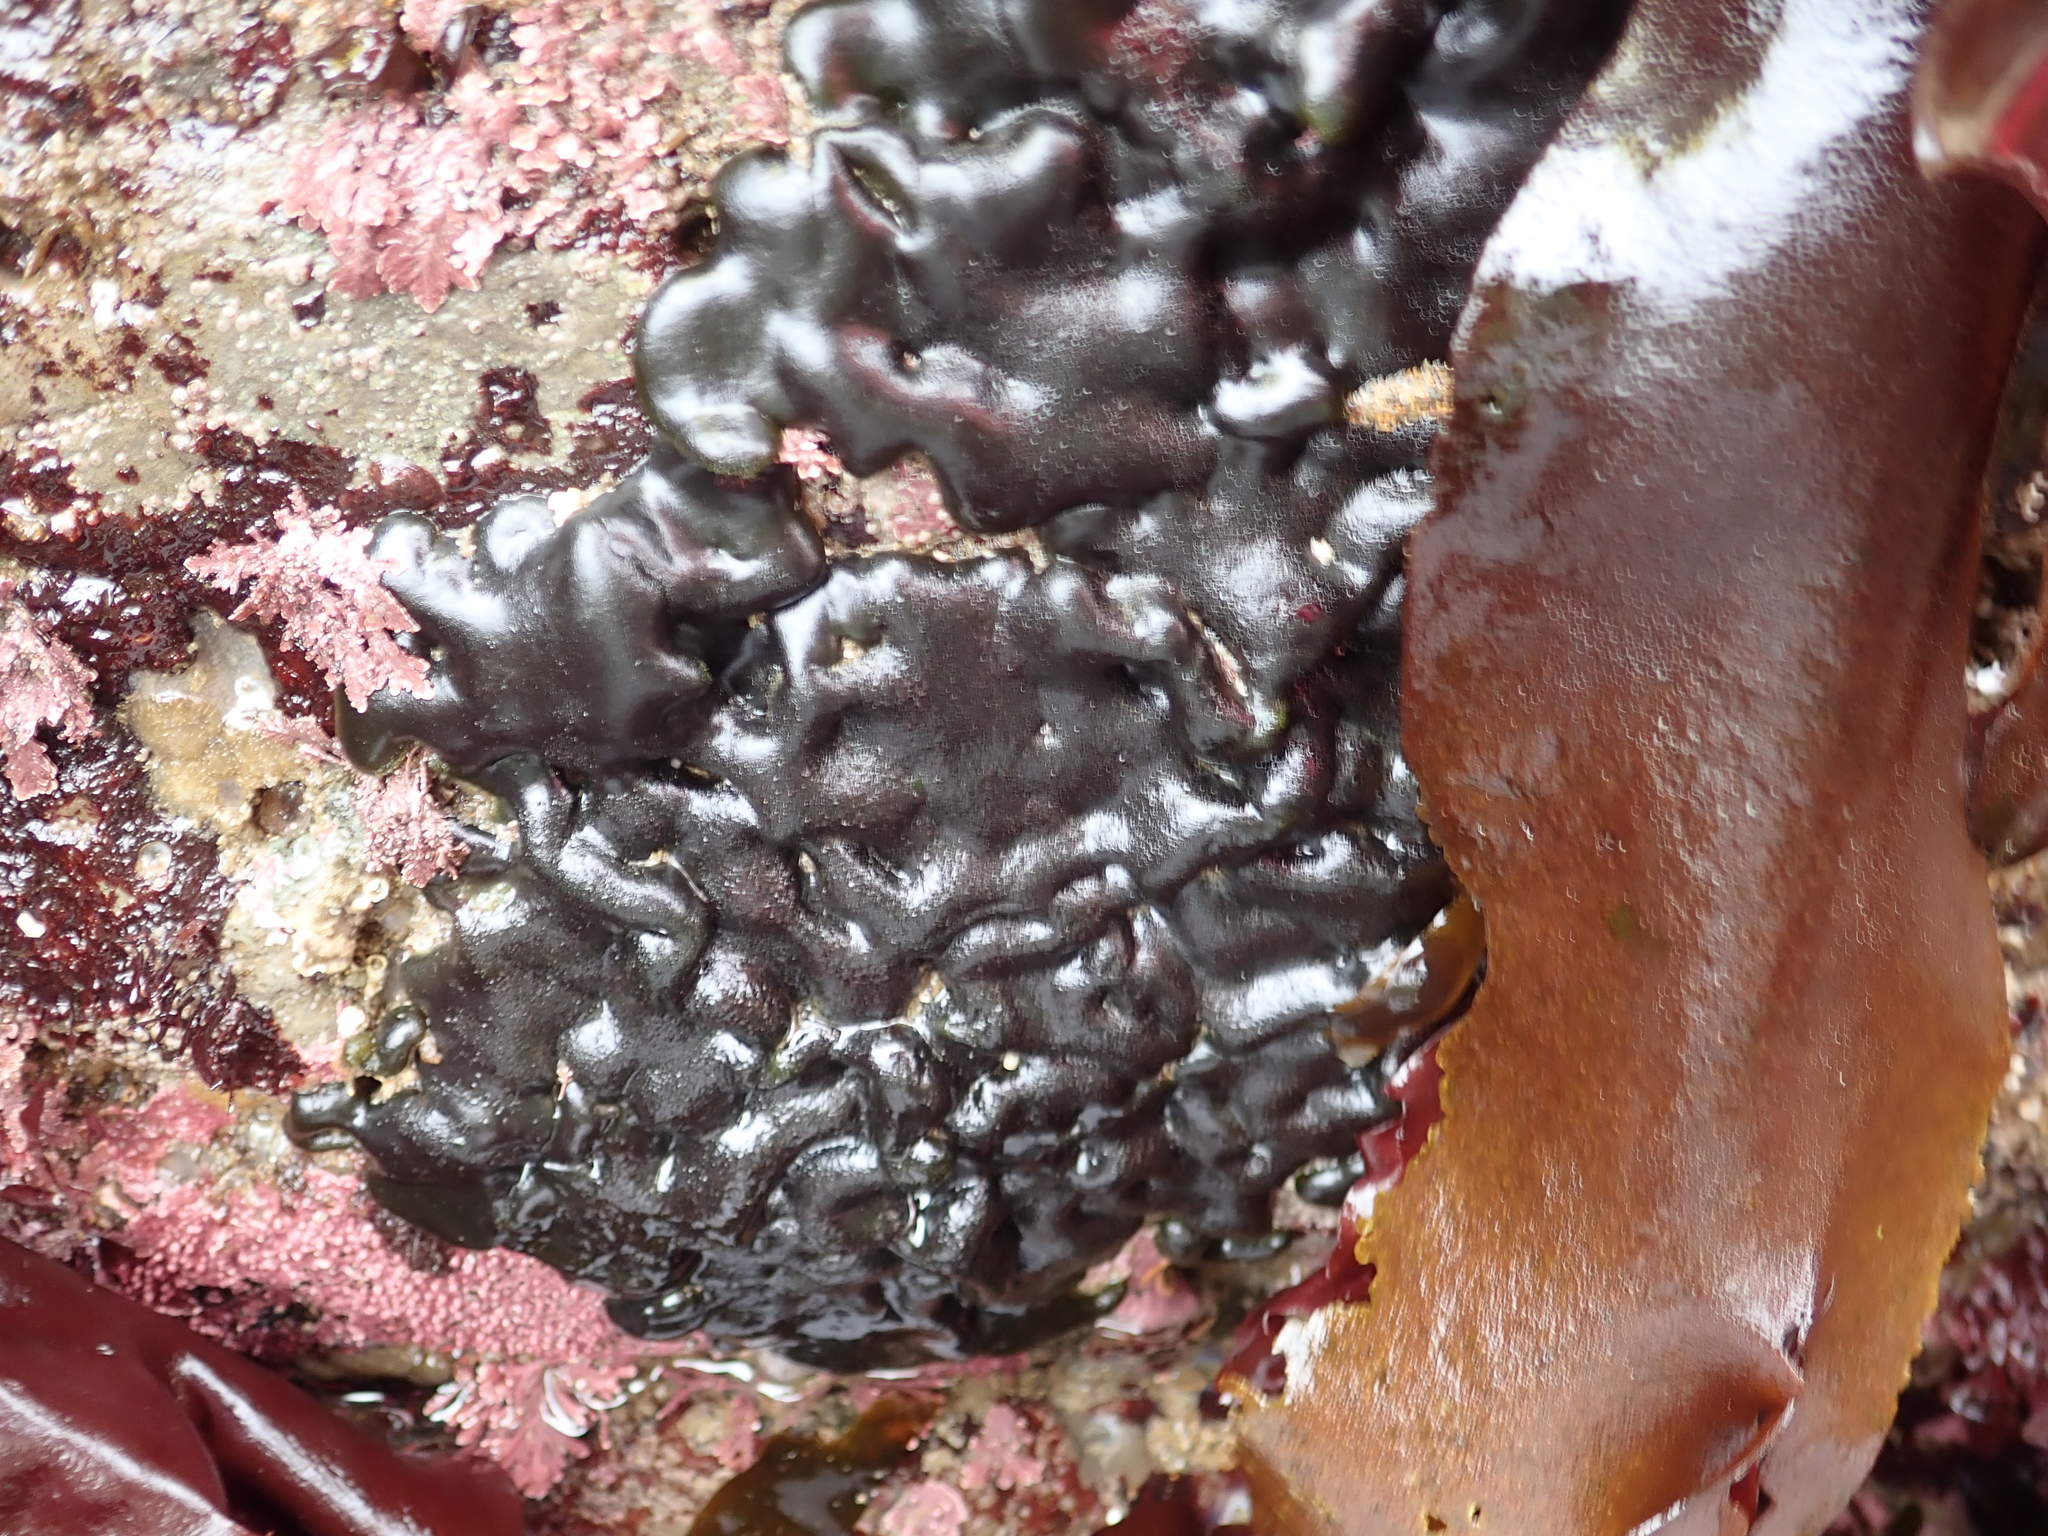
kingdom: Plantae
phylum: Chlorophyta
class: Ulvophyceae
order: Bryopsidales
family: Codiaceae
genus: Codium
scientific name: Codium setchellii
